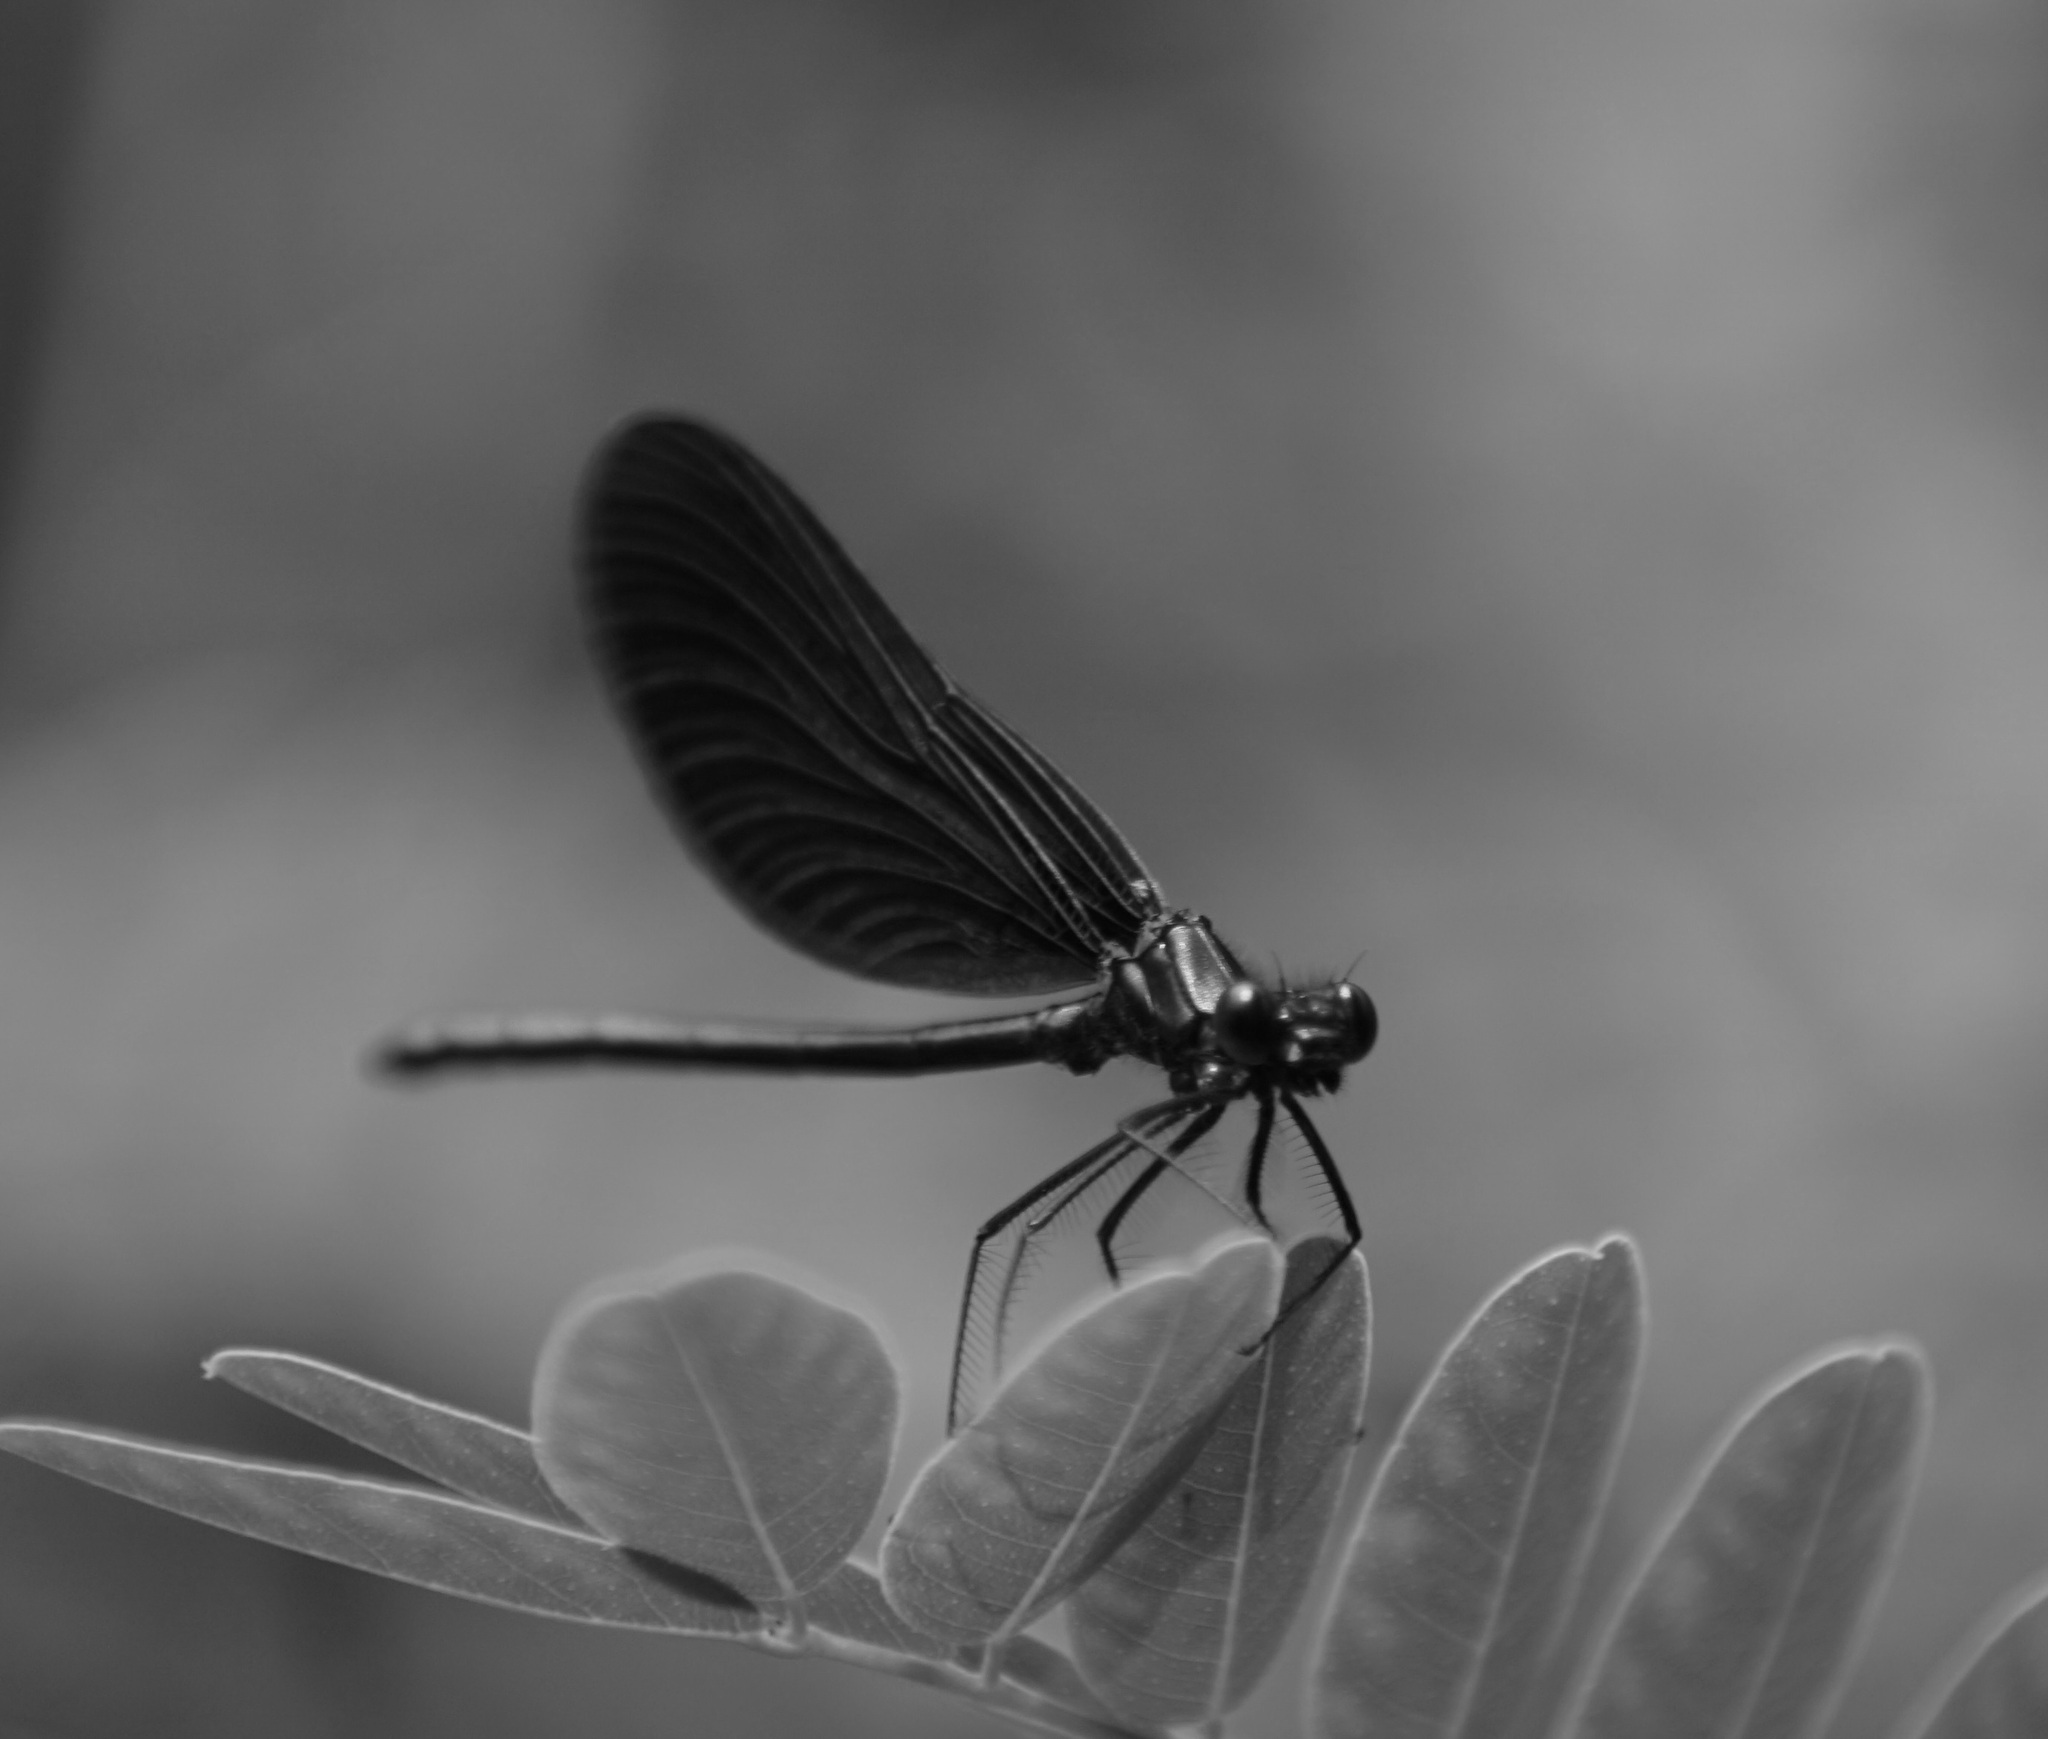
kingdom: Animalia
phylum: Arthropoda
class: Insecta
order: Odonata
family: Calopterygidae
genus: Calopteryx
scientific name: Calopteryx virgo
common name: Beautiful demoiselle
